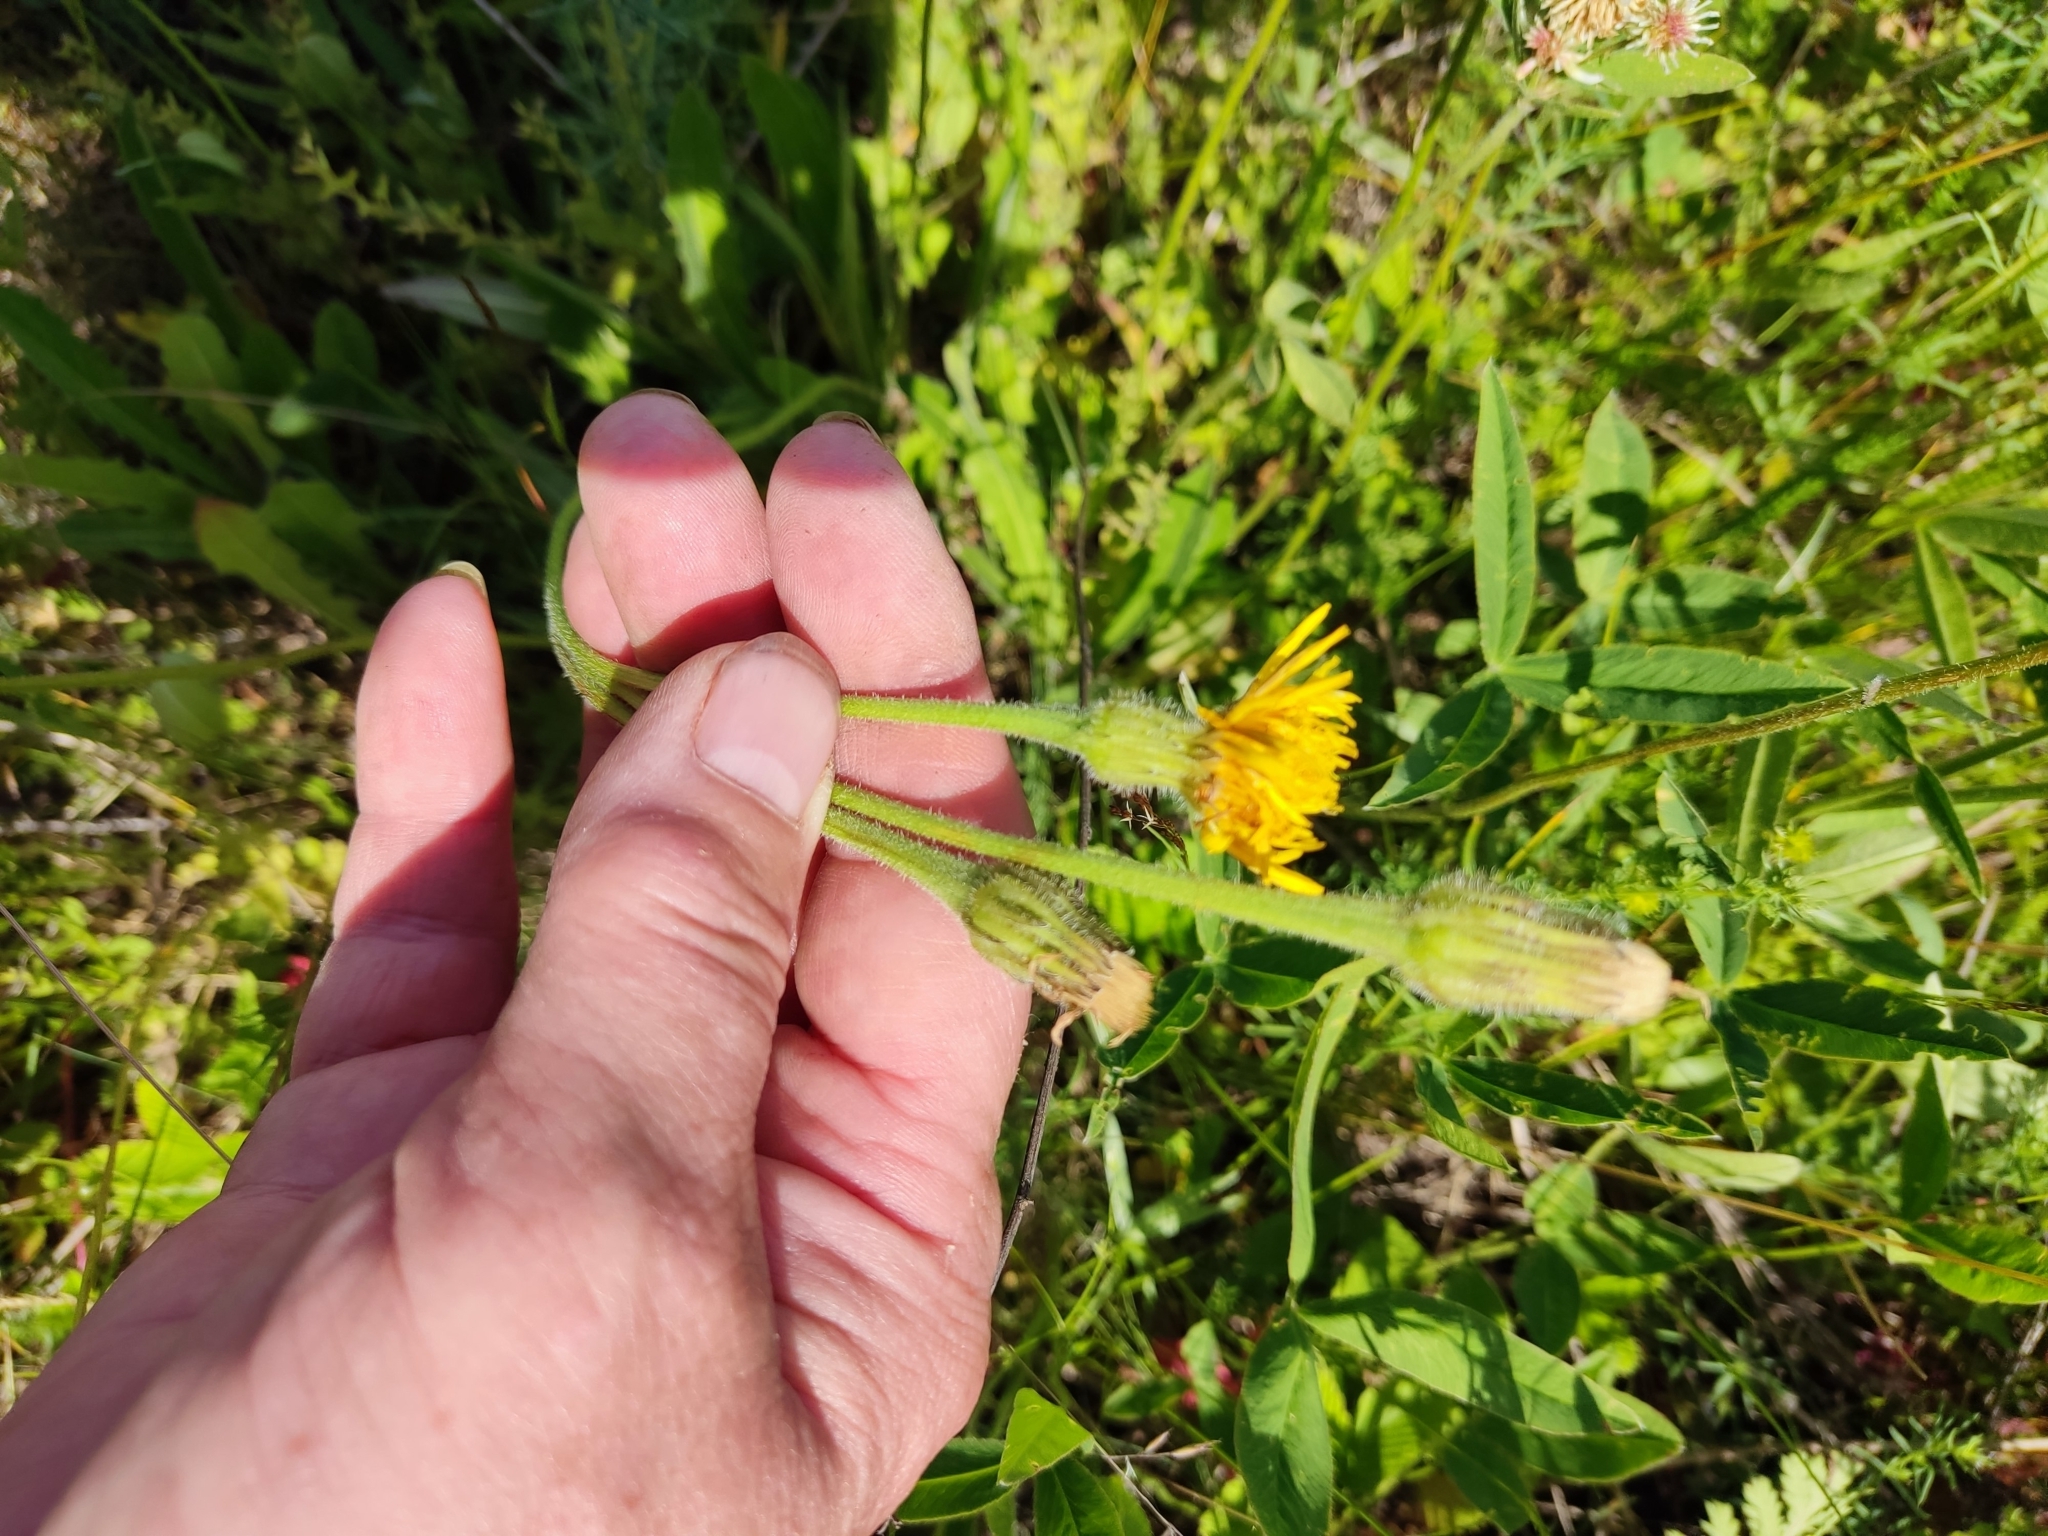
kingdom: Plantae
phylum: Tracheophyta
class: Magnoliopsida
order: Asterales
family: Asteraceae
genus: Leontodon
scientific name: Leontodon hispidus
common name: Rough hawkbit
